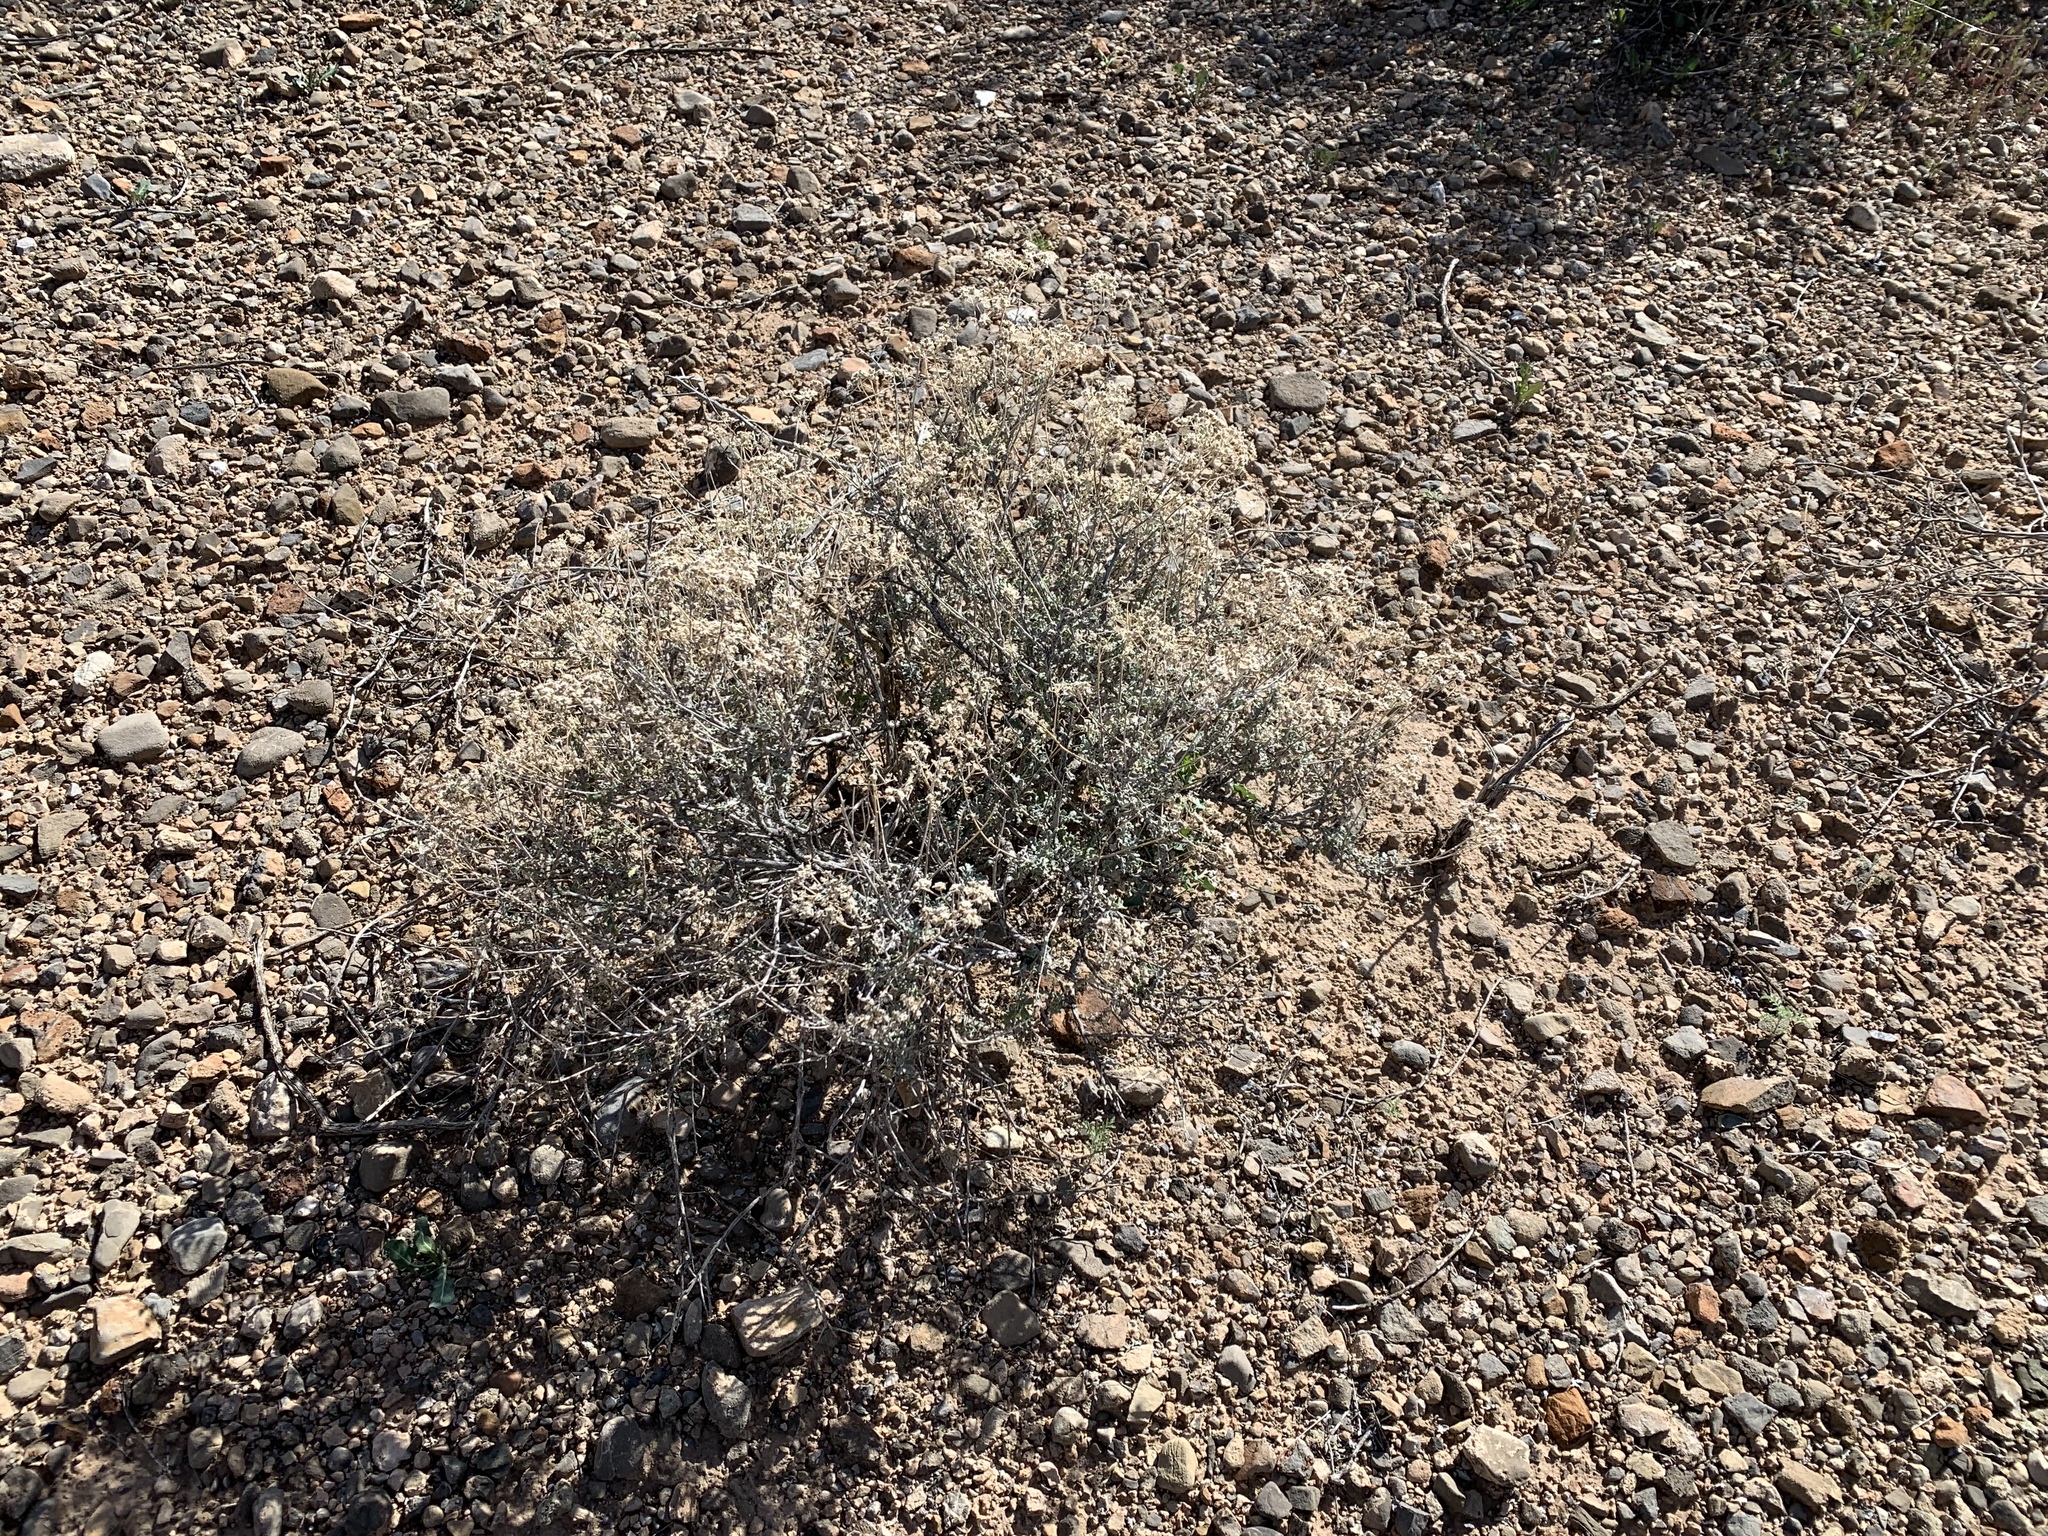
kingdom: Plantae
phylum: Tracheophyta
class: Magnoliopsida
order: Asterales
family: Asteraceae
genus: Parthenium
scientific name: Parthenium incanum
